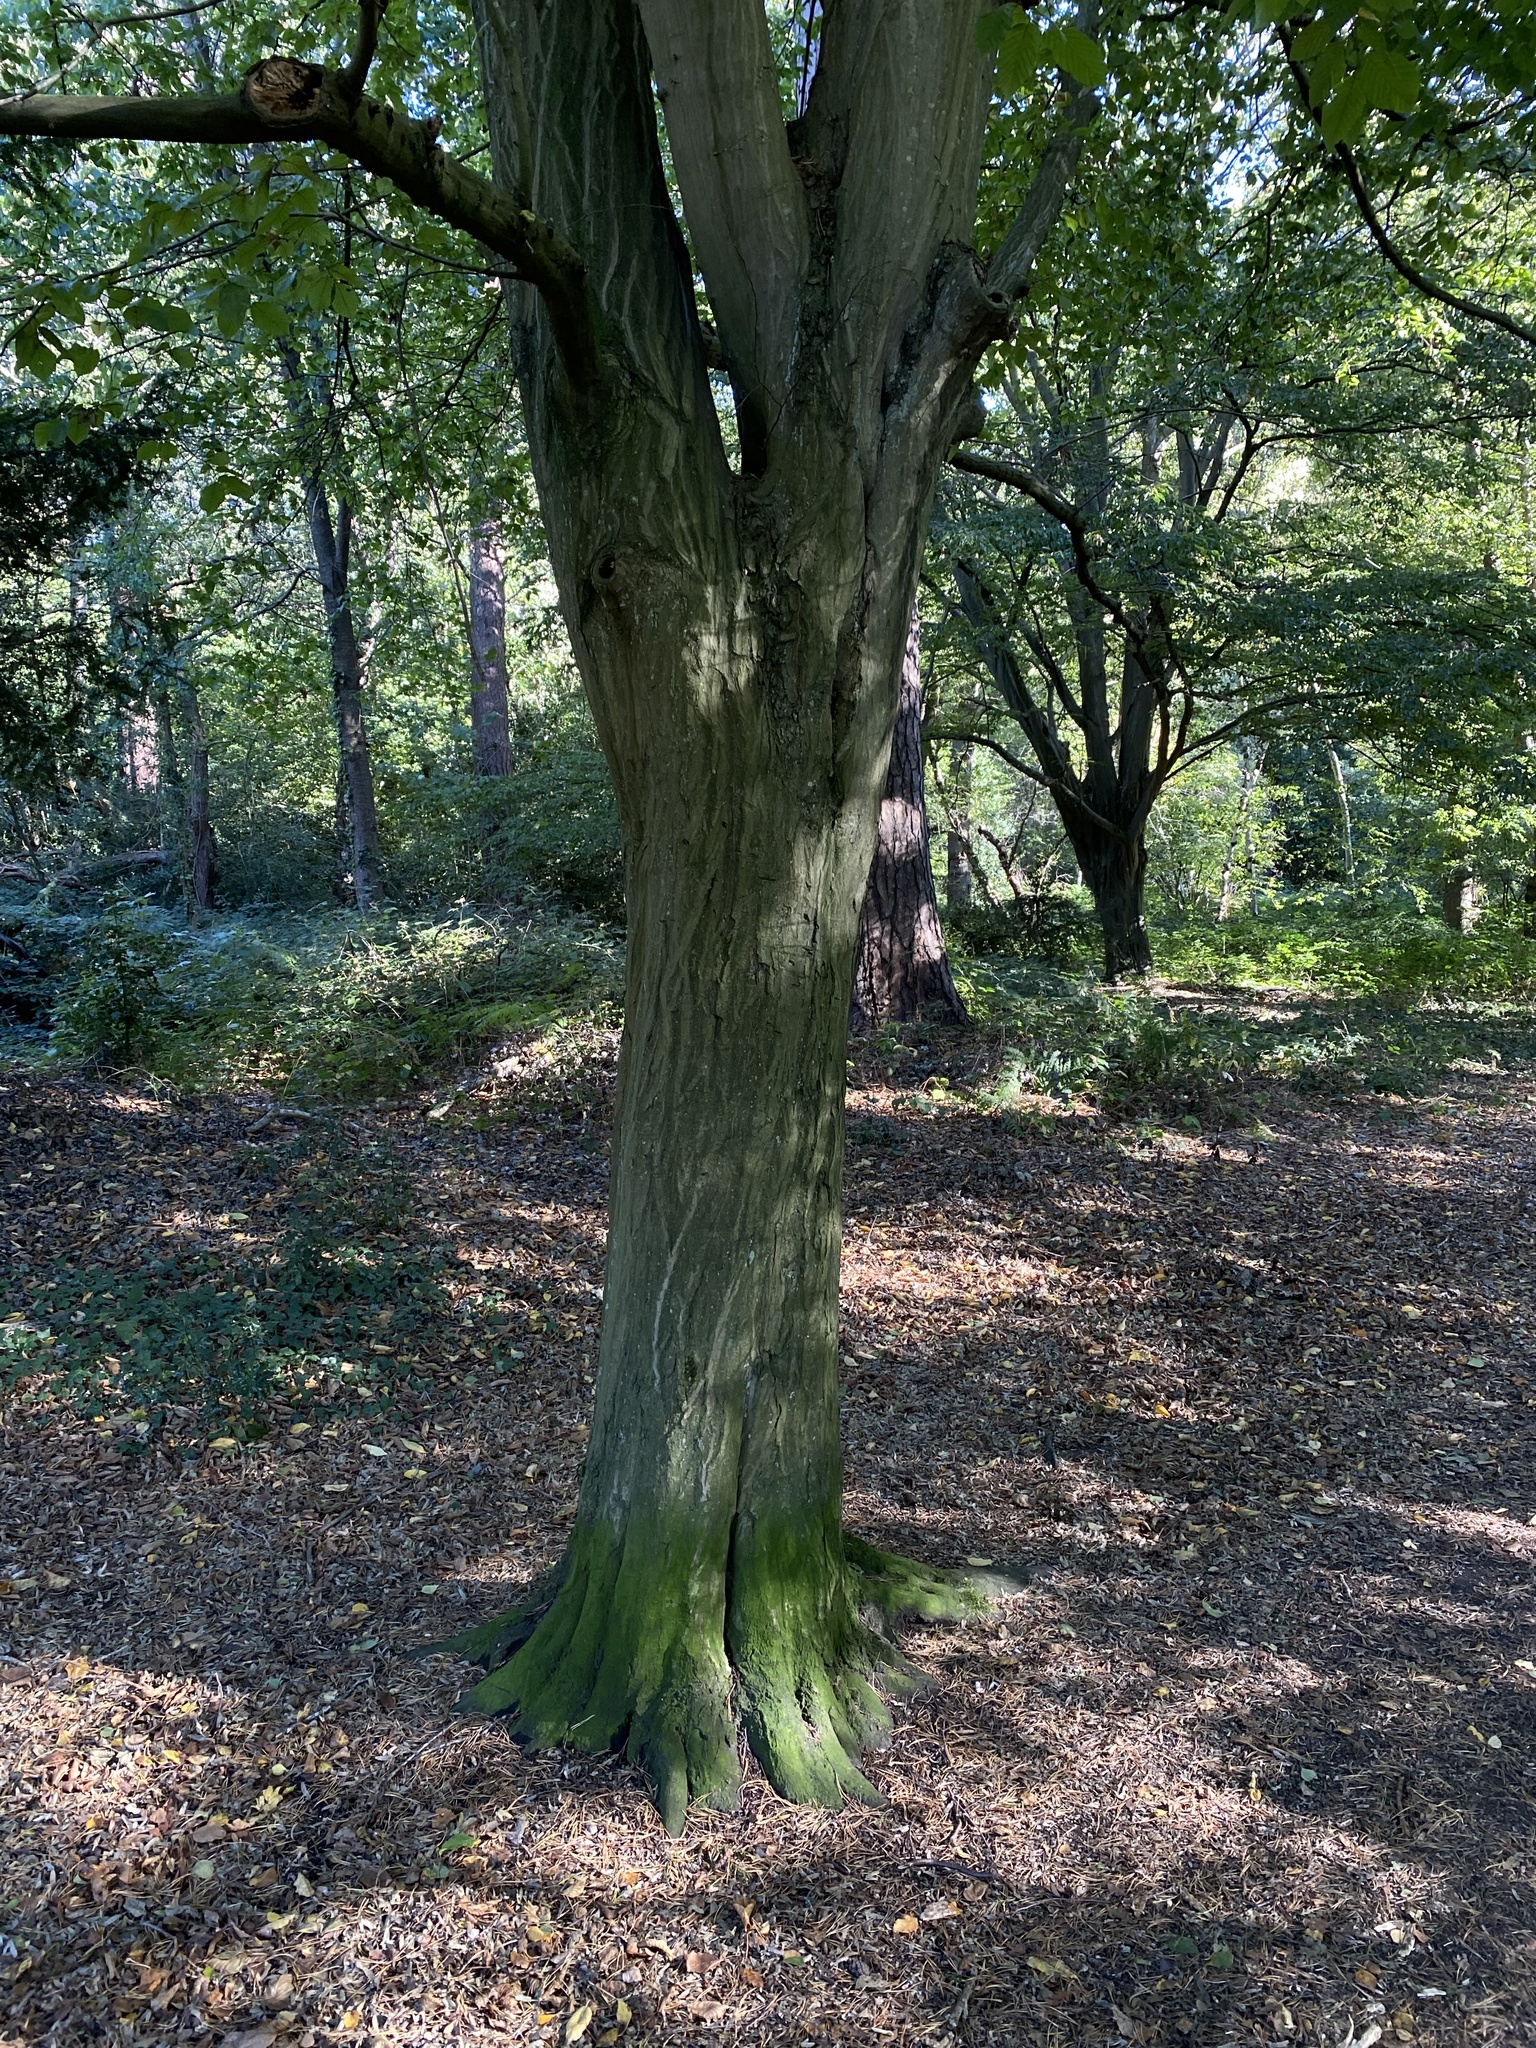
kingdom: Plantae
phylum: Tracheophyta
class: Magnoliopsida
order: Fagales
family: Betulaceae
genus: Carpinus
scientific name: Carpinus betulus
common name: Hornbeam
